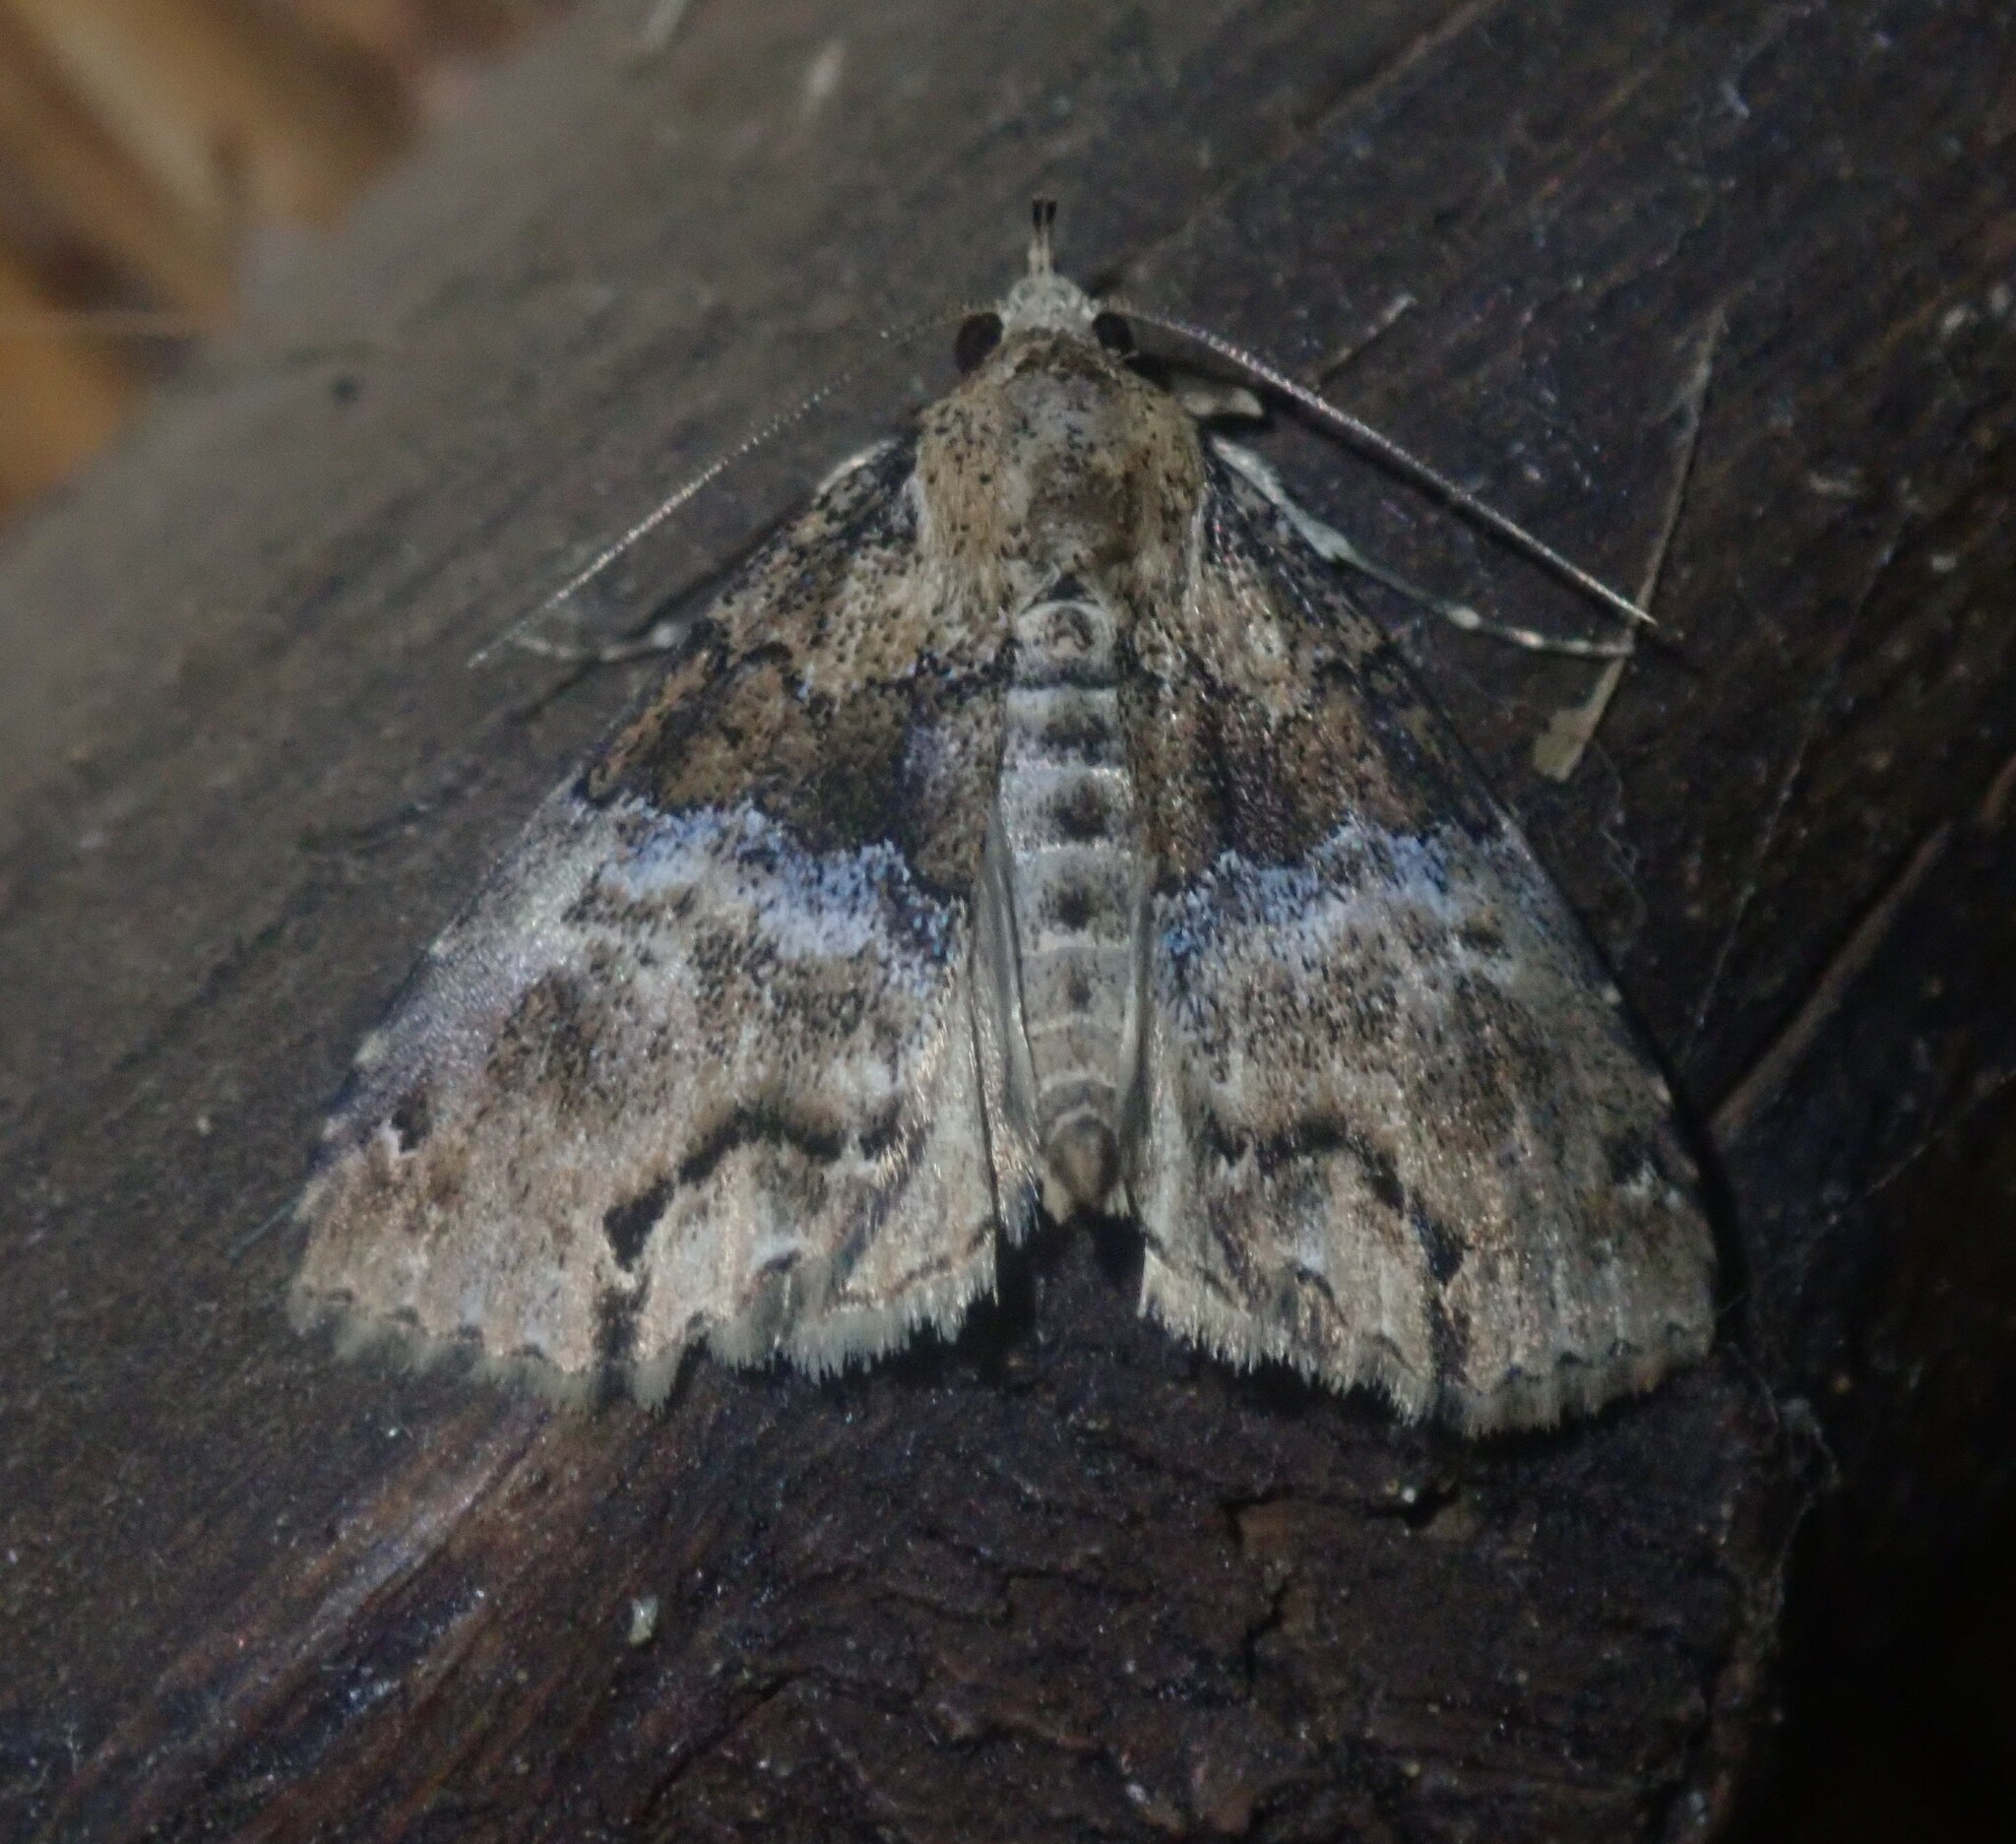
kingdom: Animalia
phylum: Arthropoda
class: Insecta
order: Lepidoptera
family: Erebidae
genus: Sarmatia
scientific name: Sarmatia interitalis
